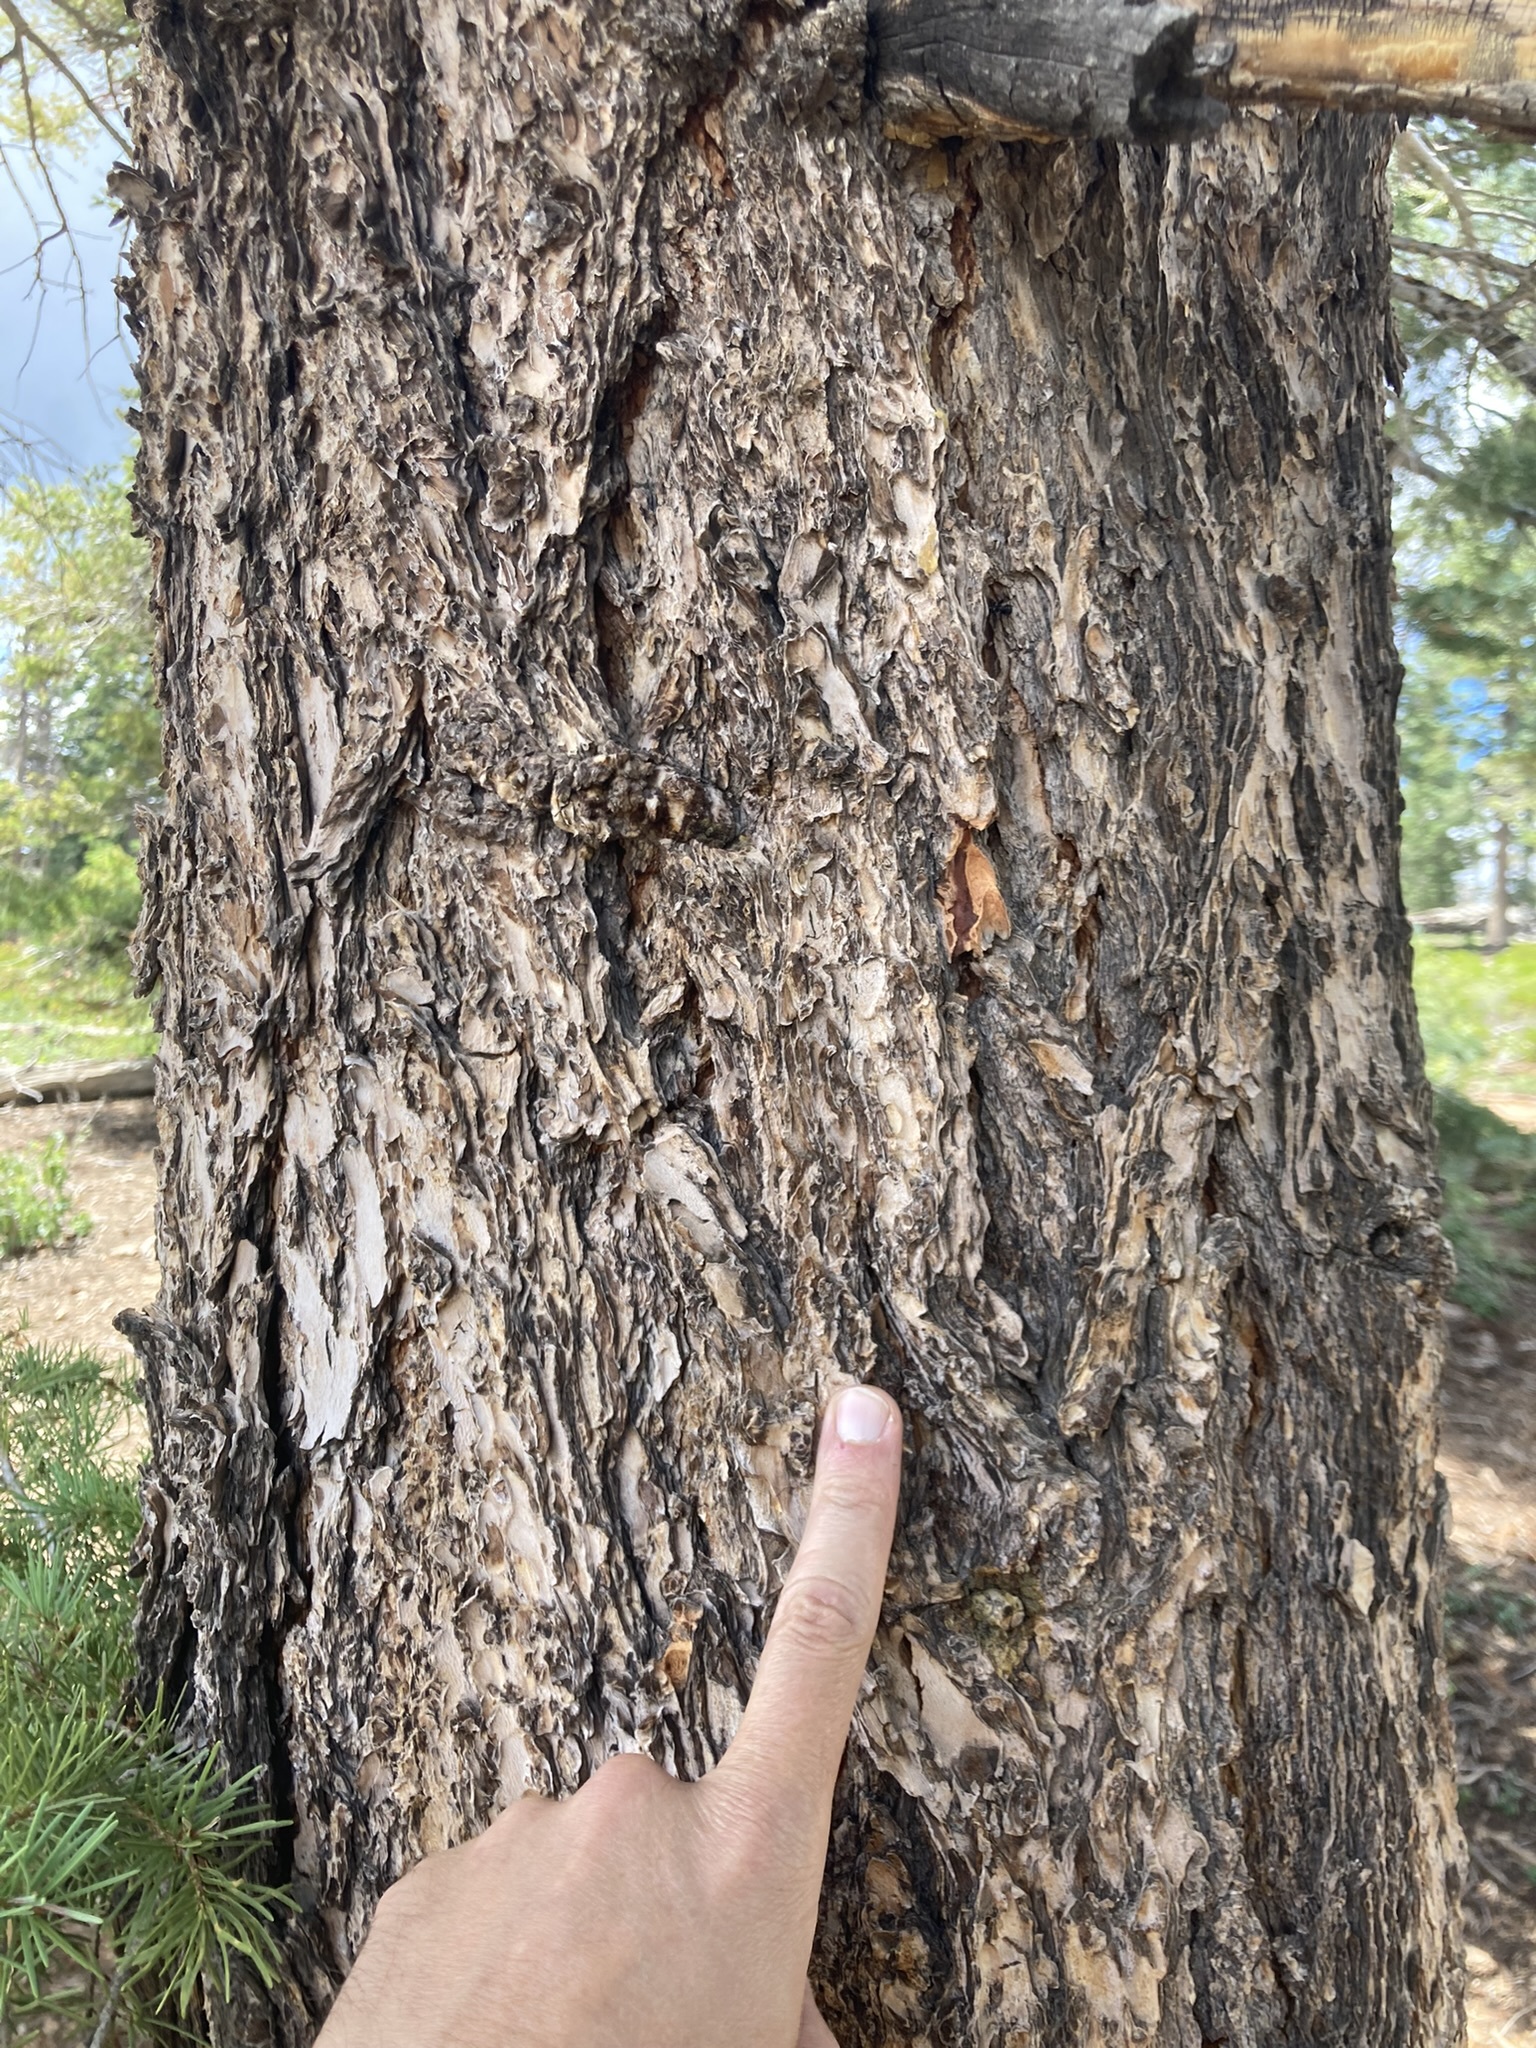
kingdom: Plantae
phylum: Tracheophyta
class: Pinopsida
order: Pinales
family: Pinaceae
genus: Pseudotsuga
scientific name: Pseudotsuga menziesii
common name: Douglas fir
